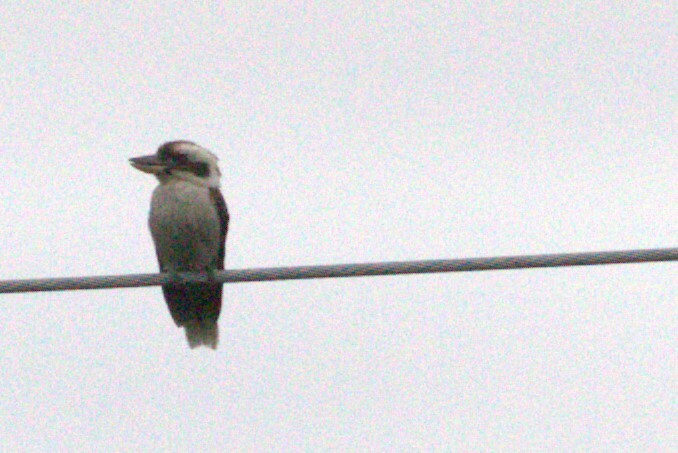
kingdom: Animalia
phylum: Chordata
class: Aves
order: Coraciiformes
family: Alcedinidae
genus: Dacelo
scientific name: Dacelo novaeguineae
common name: Laughing kookaburra
